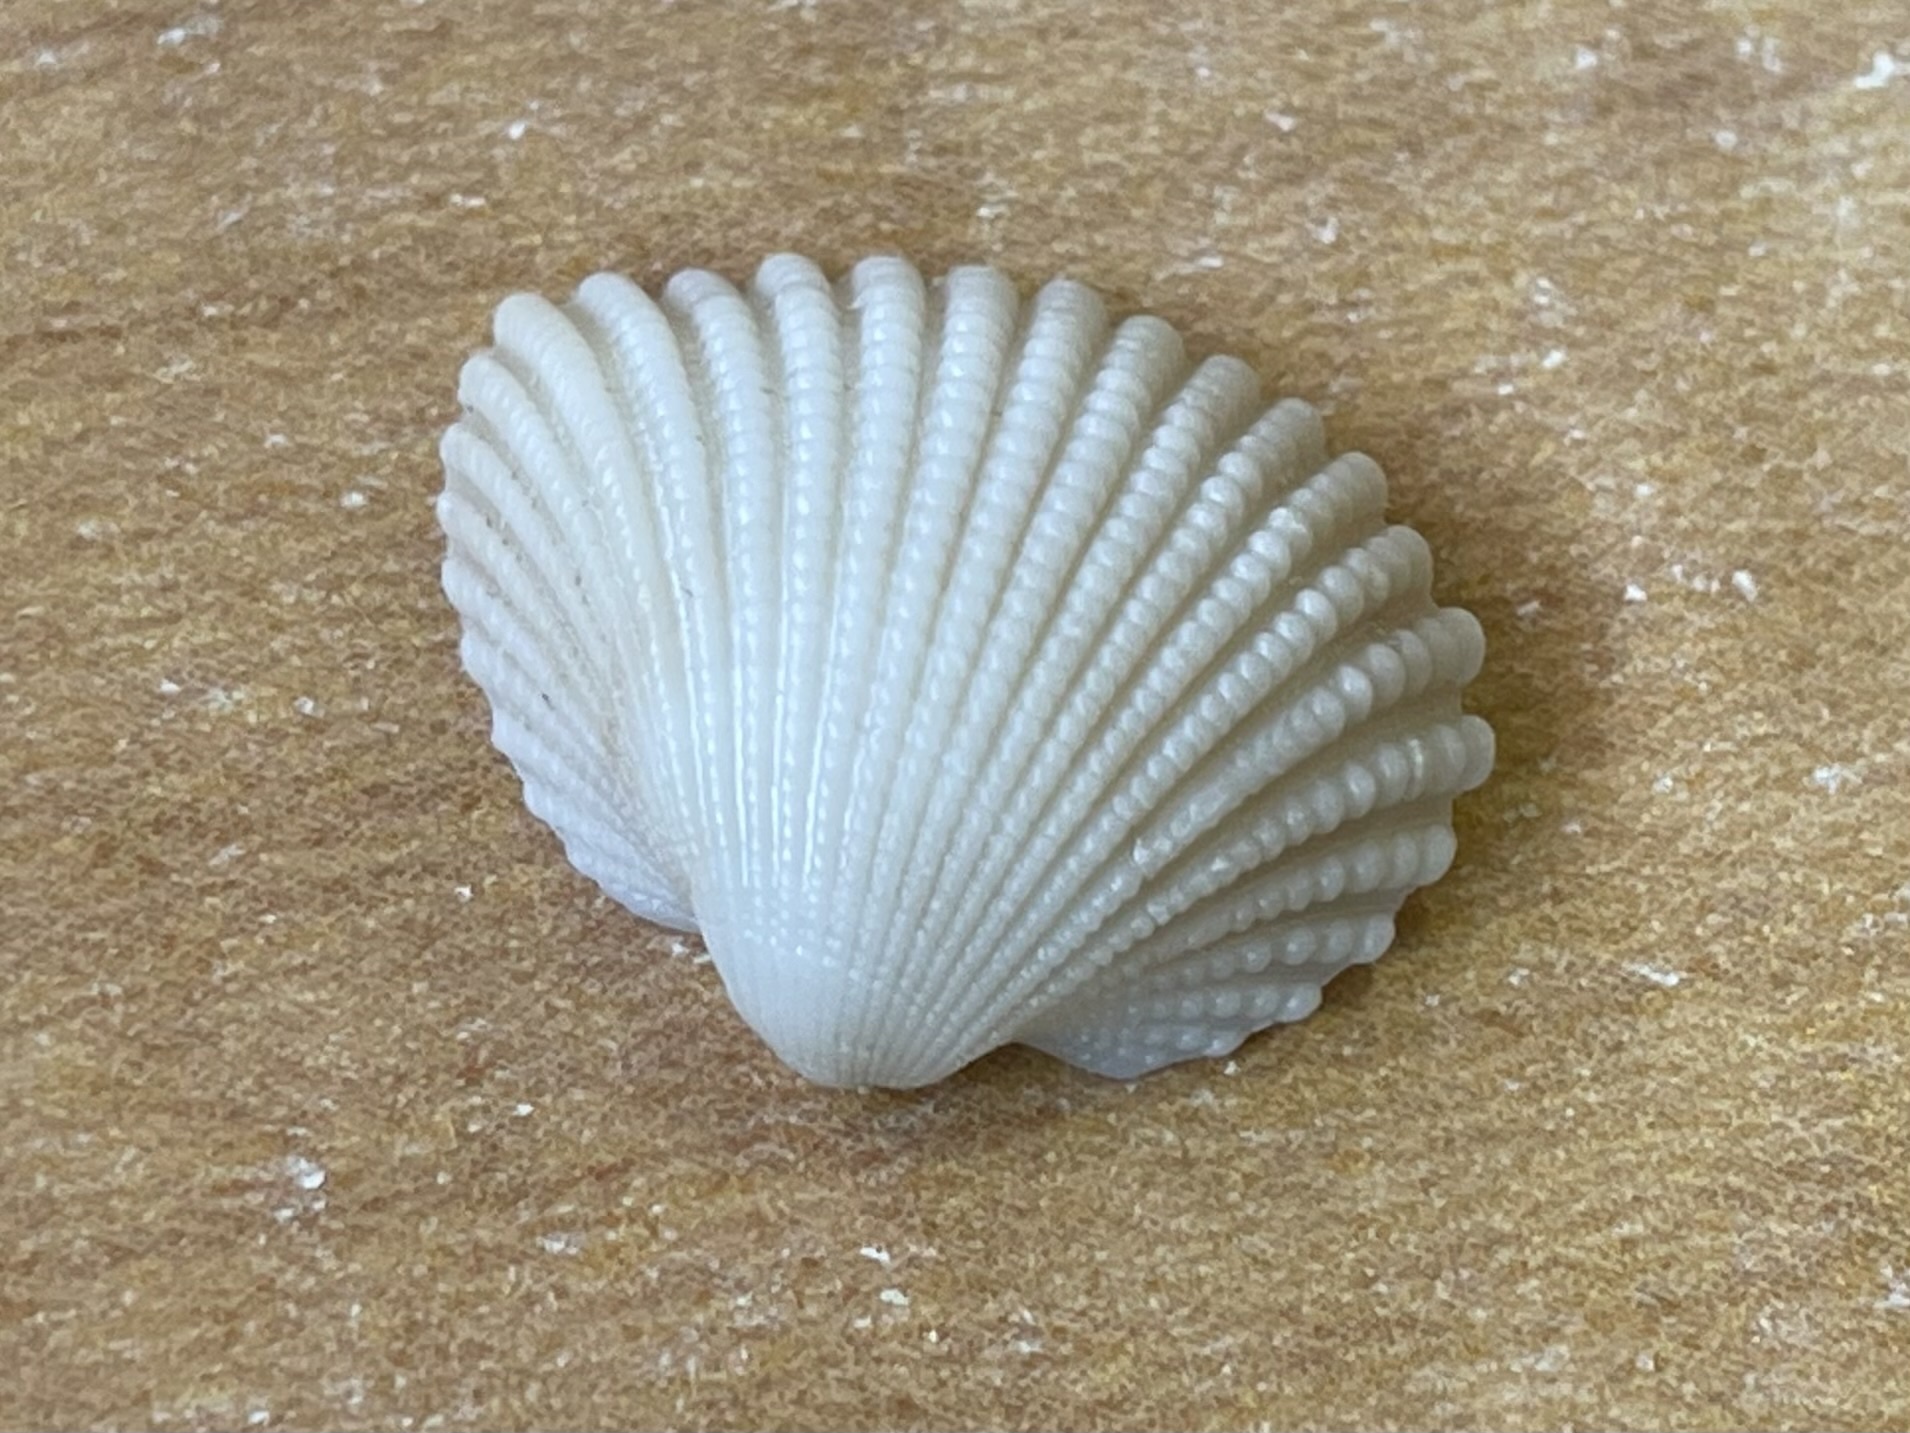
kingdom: Animalia
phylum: Mollusca
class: Bivalvia
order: Arcida
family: Arcidae
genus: Anadara
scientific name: Anadara brasiliana
